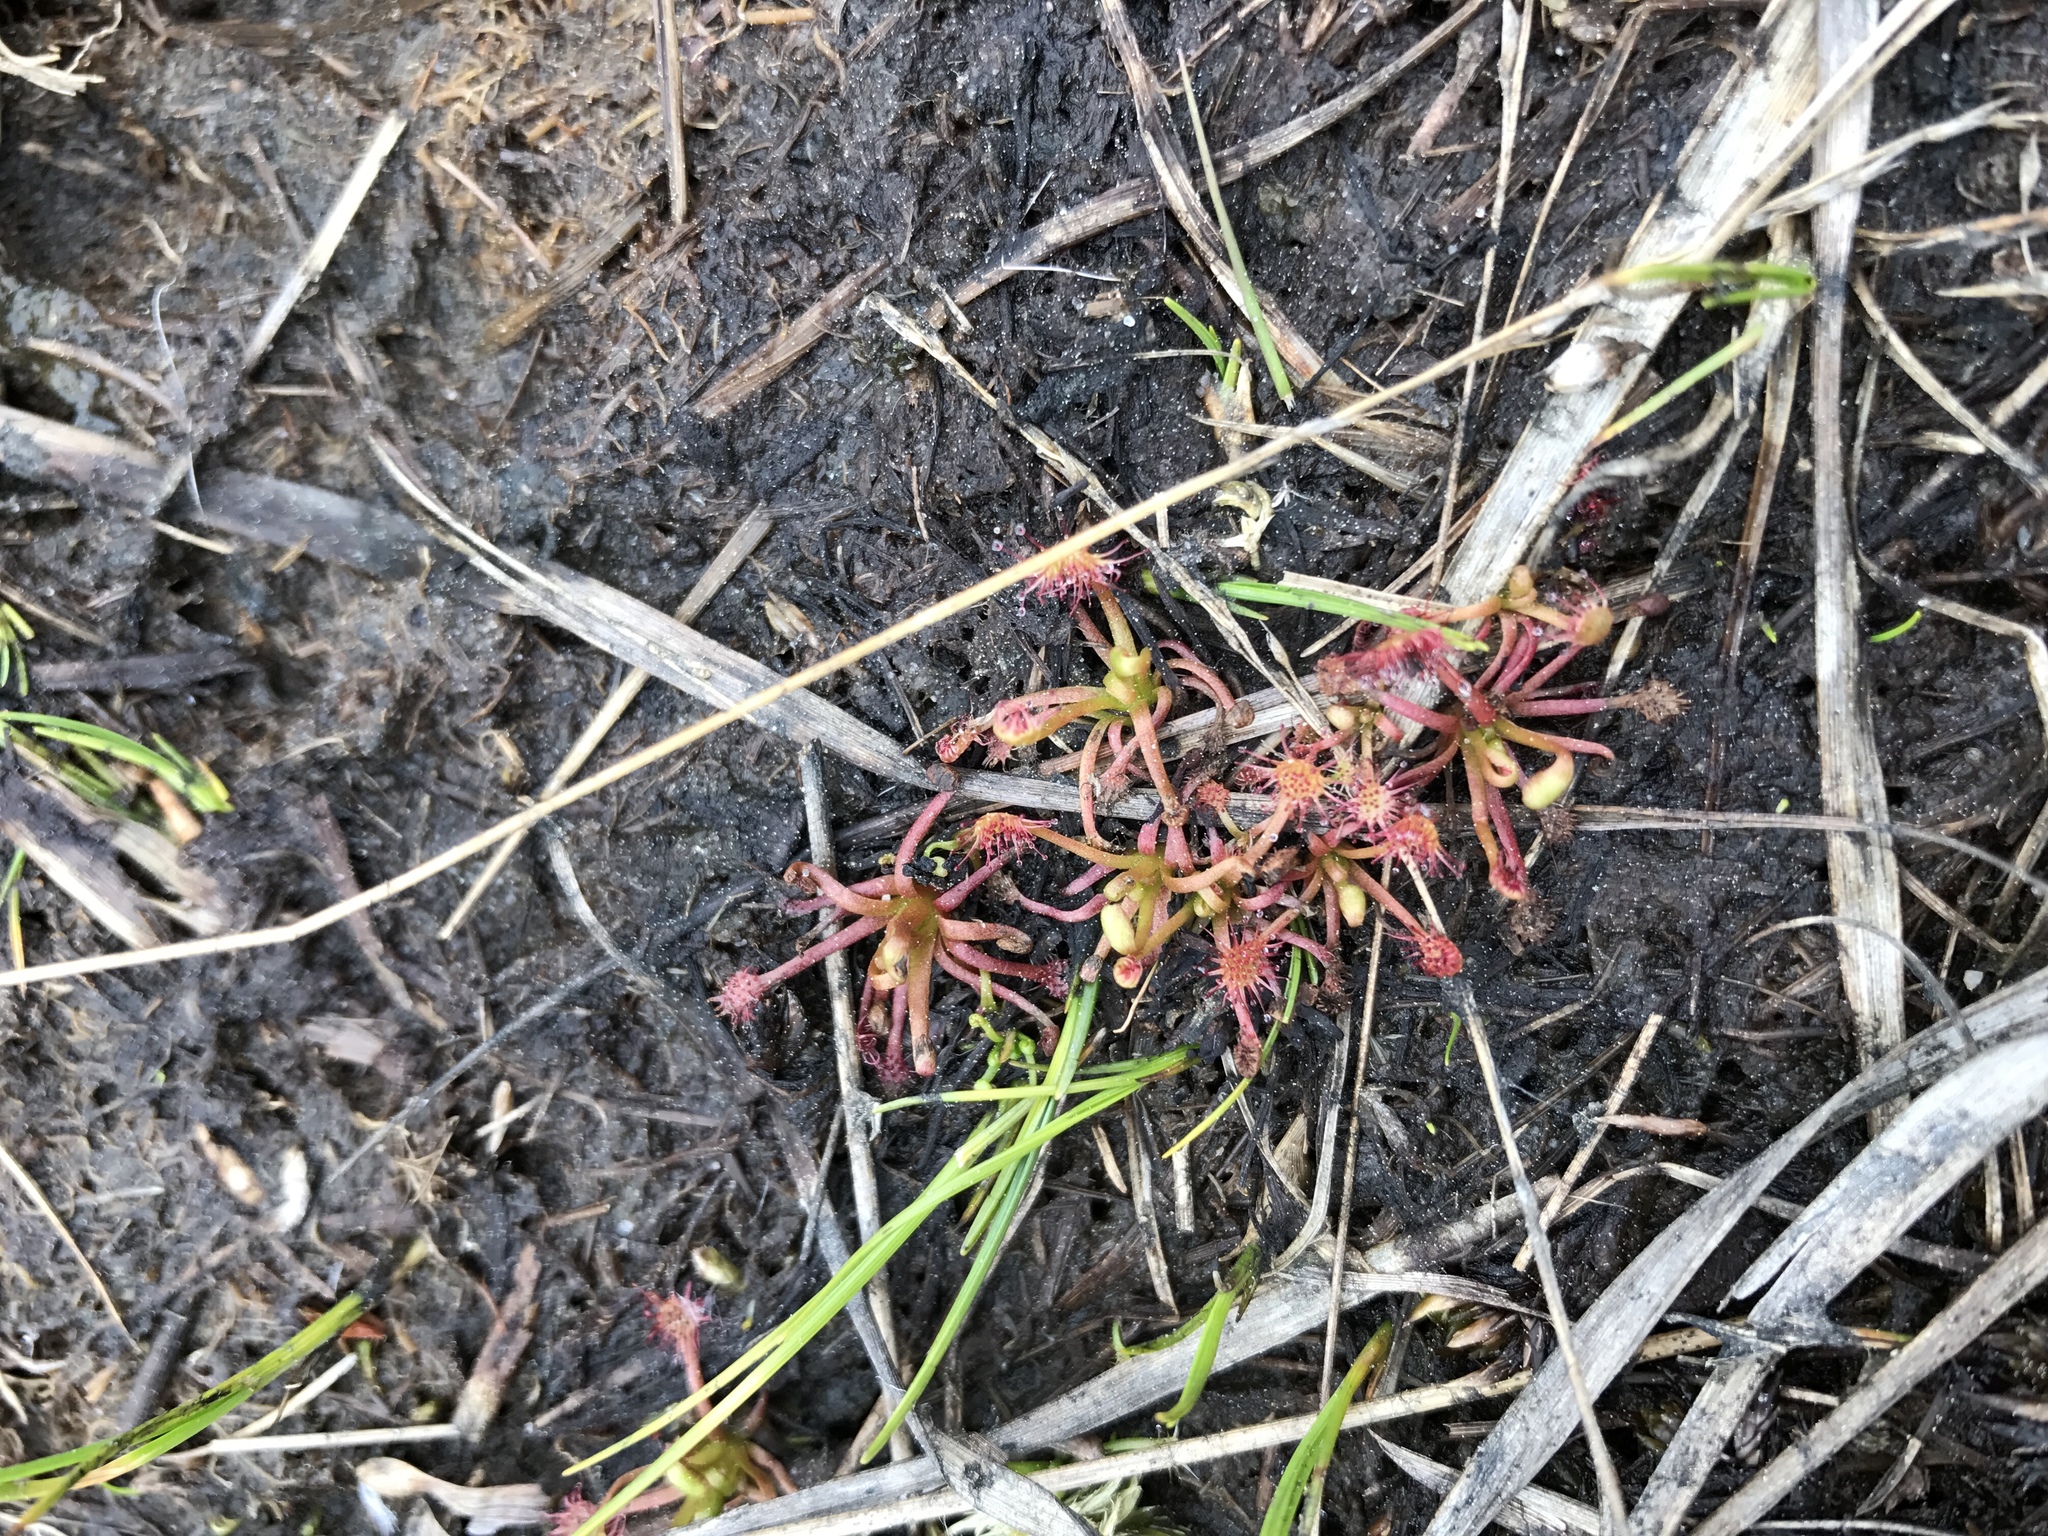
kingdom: Plantae
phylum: Tracheophyta
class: Magnoliopsida
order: Caryophyllales
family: Droseraceae
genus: Drosera
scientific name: Drosera intermedia
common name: Oblong-leaved sundew
